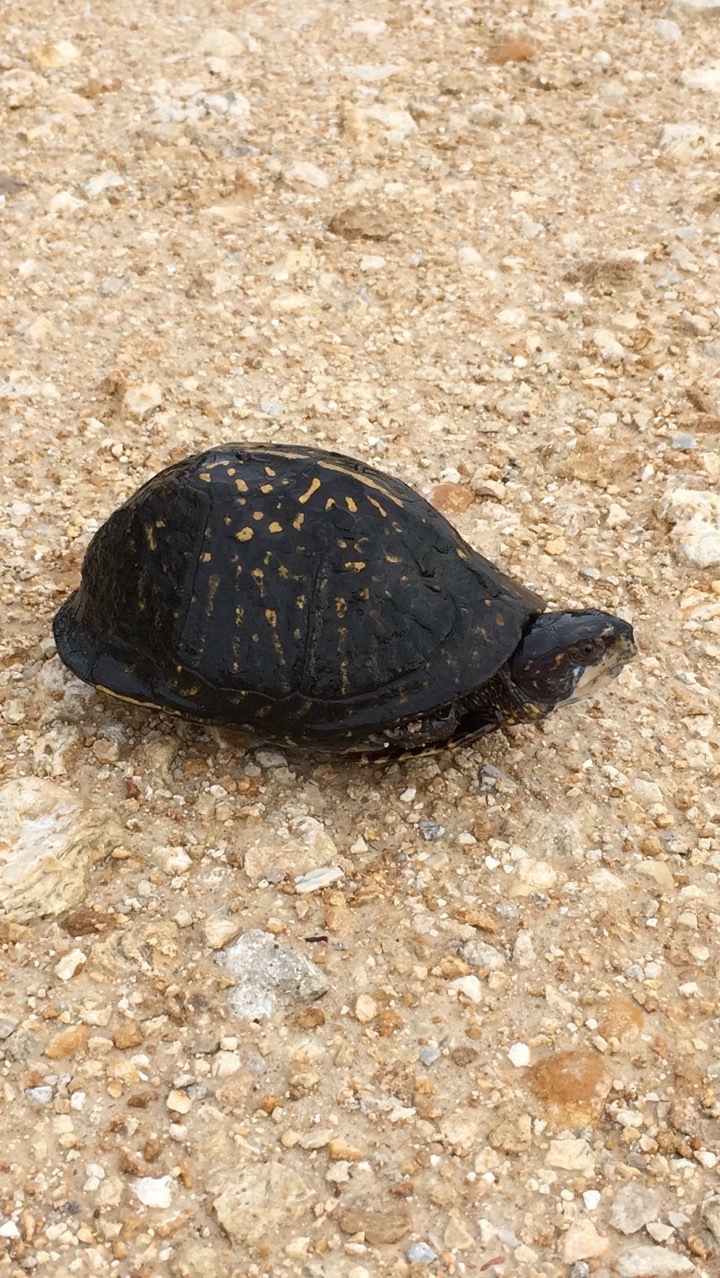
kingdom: Animalia
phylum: Chordata
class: Testudines
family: Emydidae
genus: Terrapene
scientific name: Terrapene carolina
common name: Common box turtle
